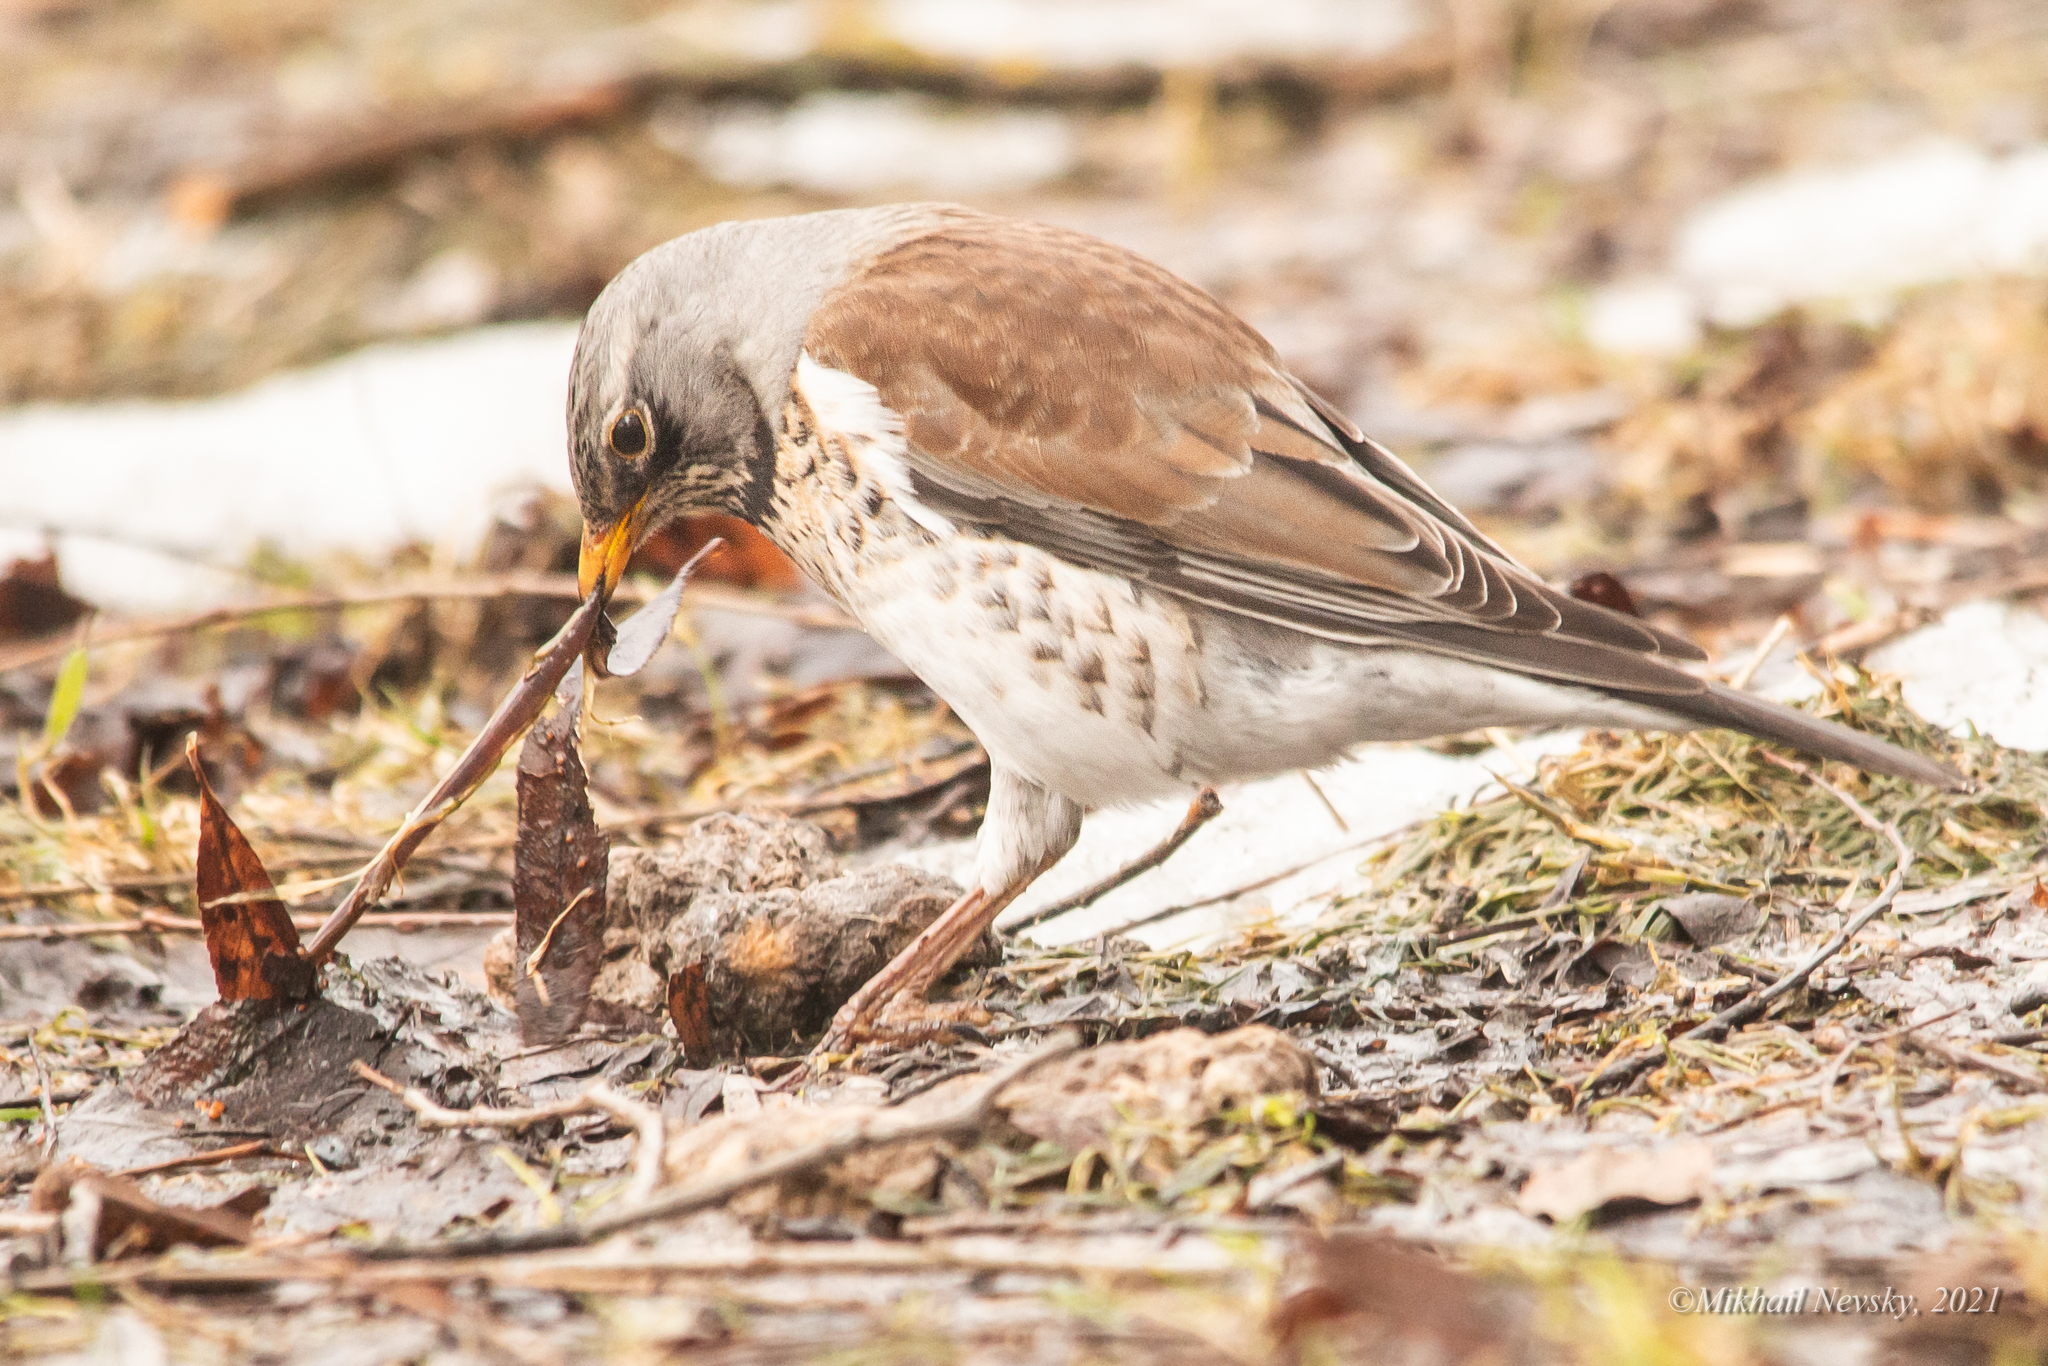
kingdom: Animalia
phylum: Chordata
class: Aves
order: Passeriformes
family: Turdidae
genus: Turdus
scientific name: Turdus pilaris
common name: Fieldfare
